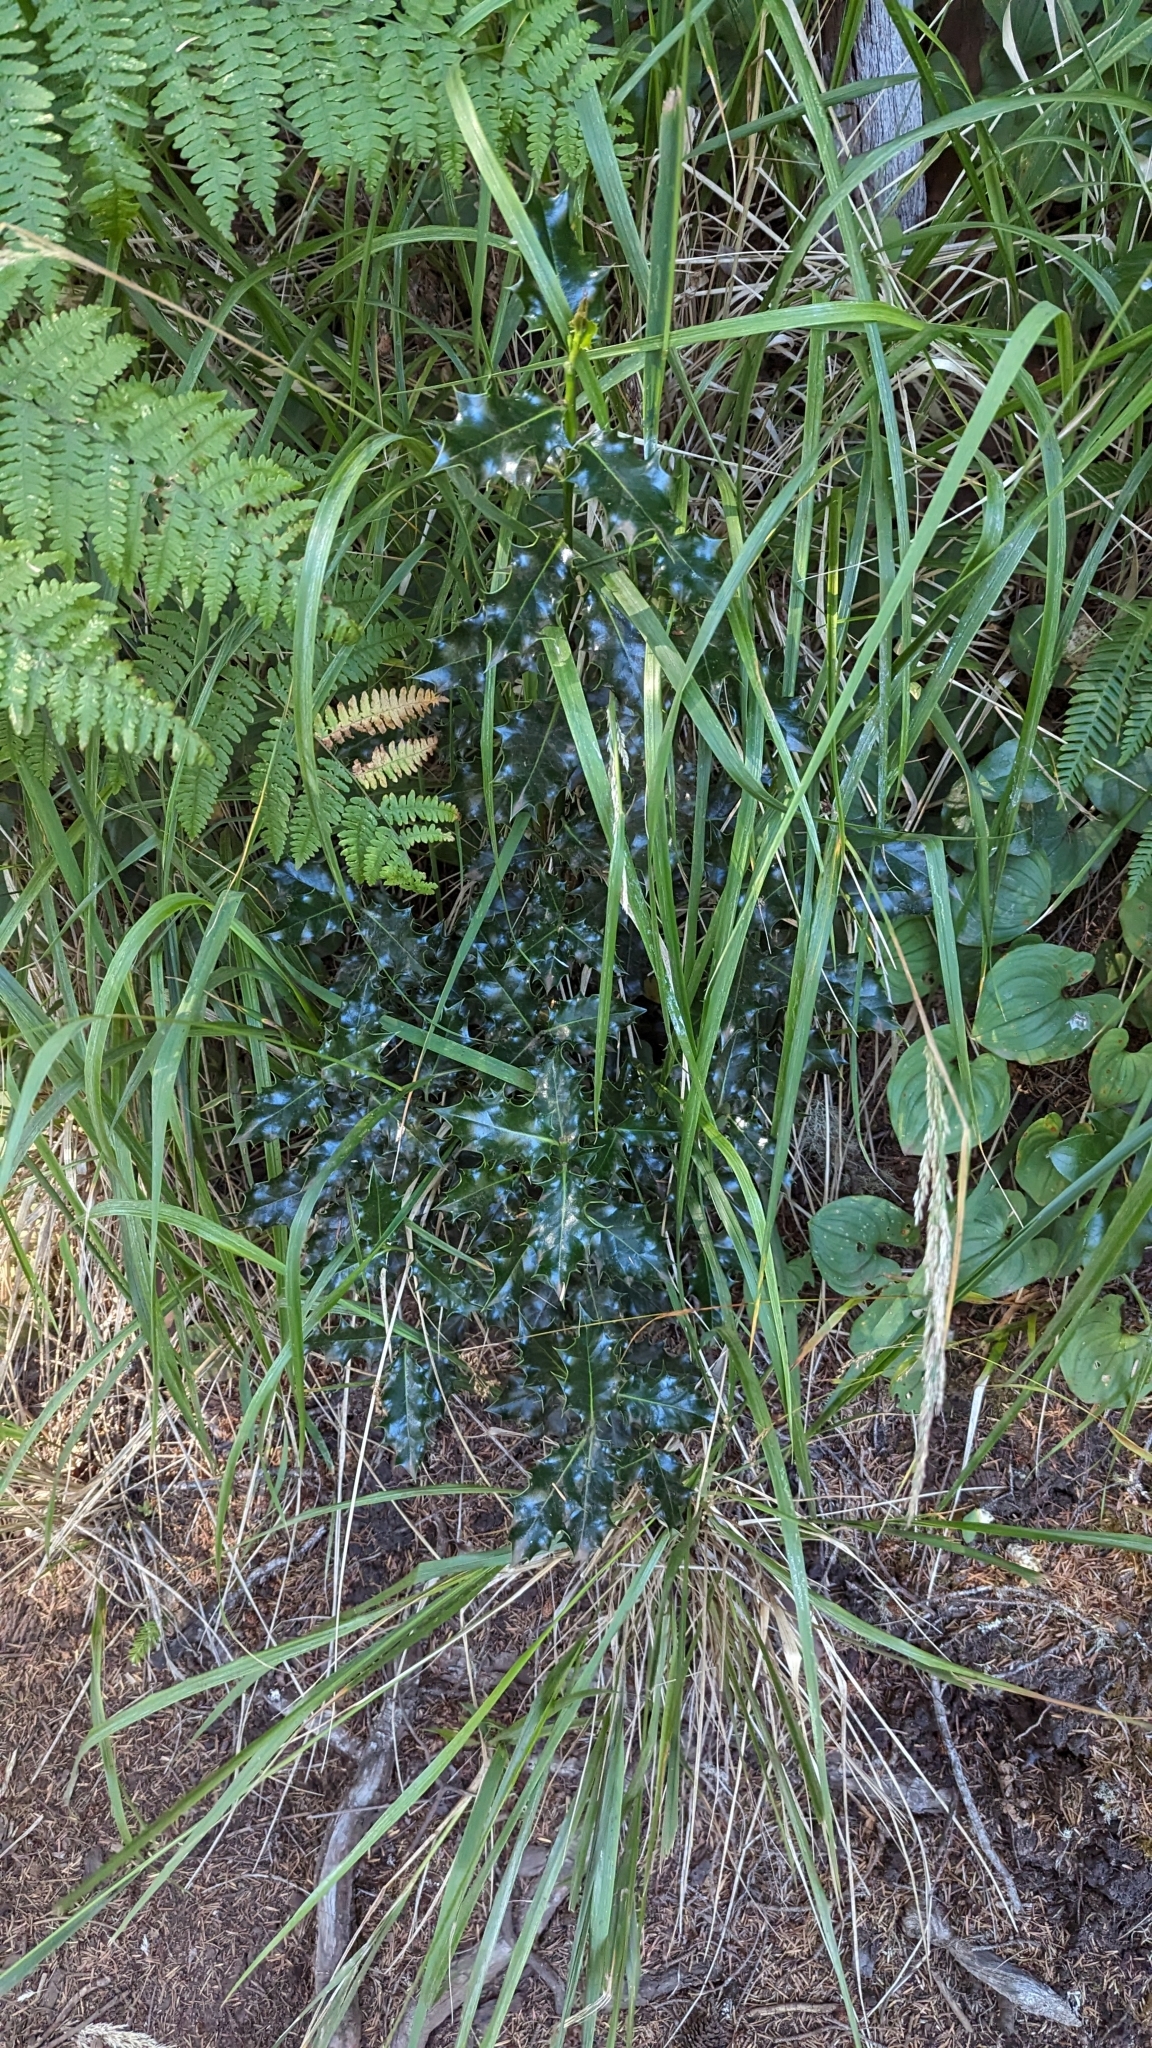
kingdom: Plantae
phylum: Tracheophyta
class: Magnoliopsida
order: Aquifoliales
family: Aquifoliaceae
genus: Ilex
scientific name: Ilex aquifolium
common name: English holly
